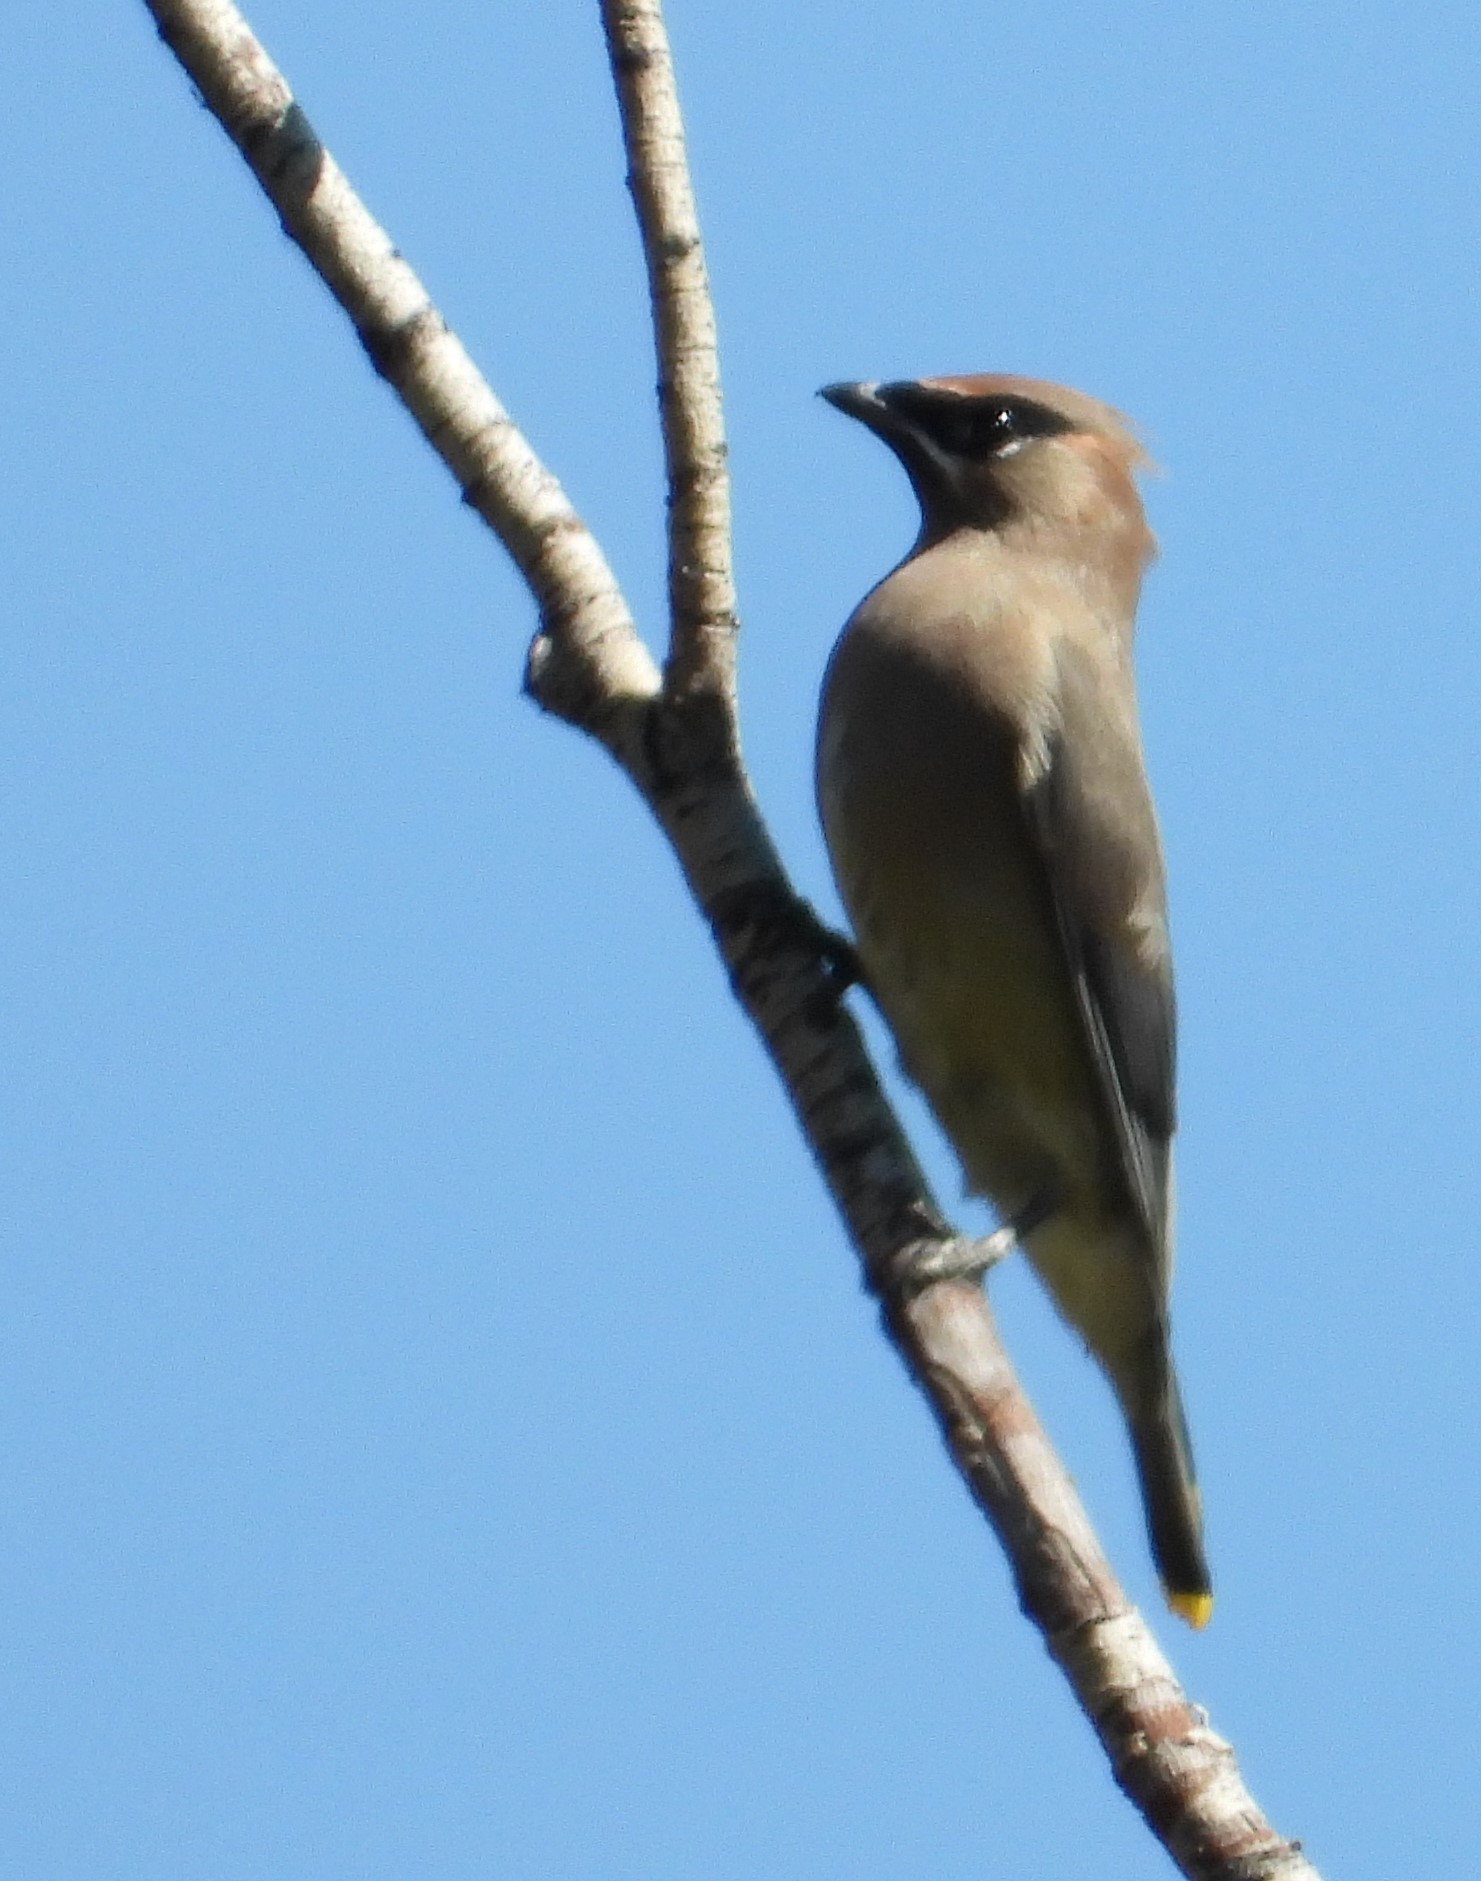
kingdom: Animalia
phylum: Chordata
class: Aves
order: Passeriformes
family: Bombycillidae
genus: Bombycilla
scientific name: Bombycilla cedrorum
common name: Cedar waxwing
